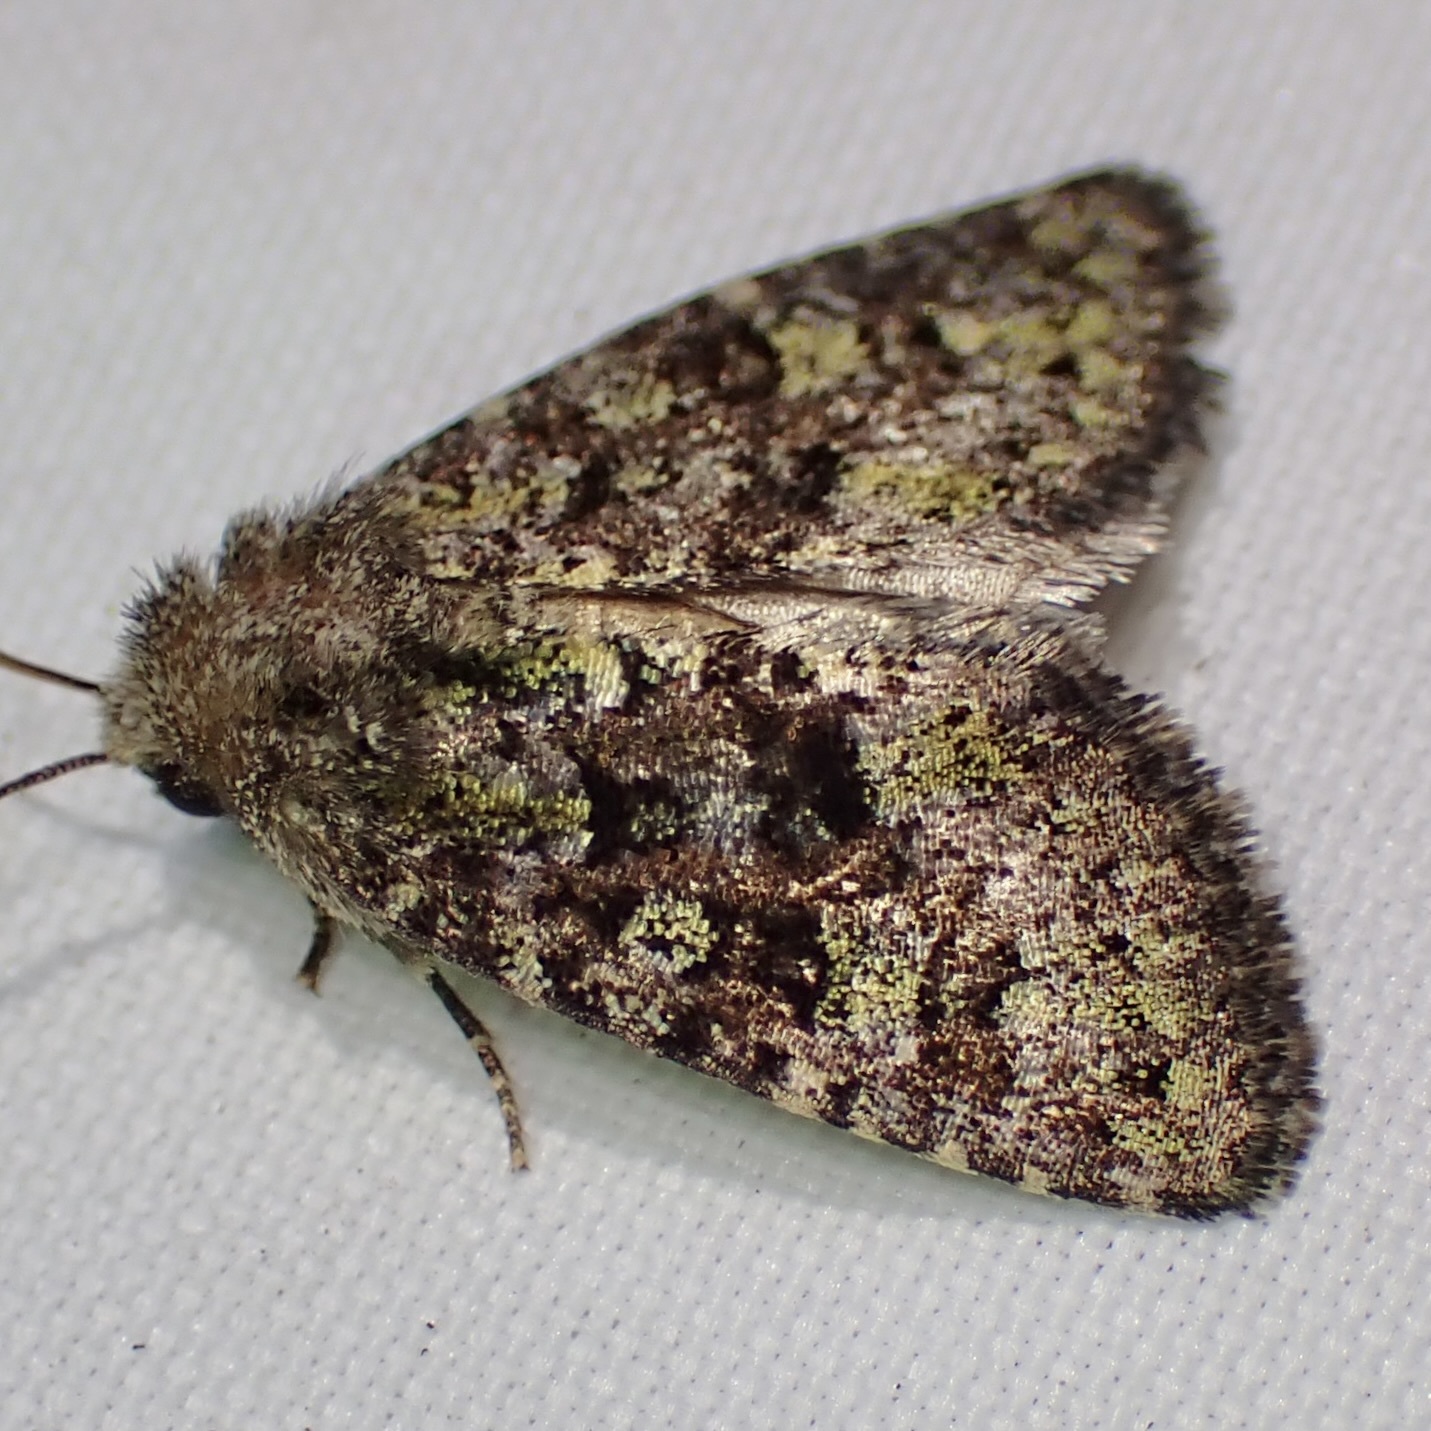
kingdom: Animalia
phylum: Arthropoda
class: Insecta
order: Lepidoptera
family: Noctuidae
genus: Paramiana
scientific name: Paramiana smaragdina
